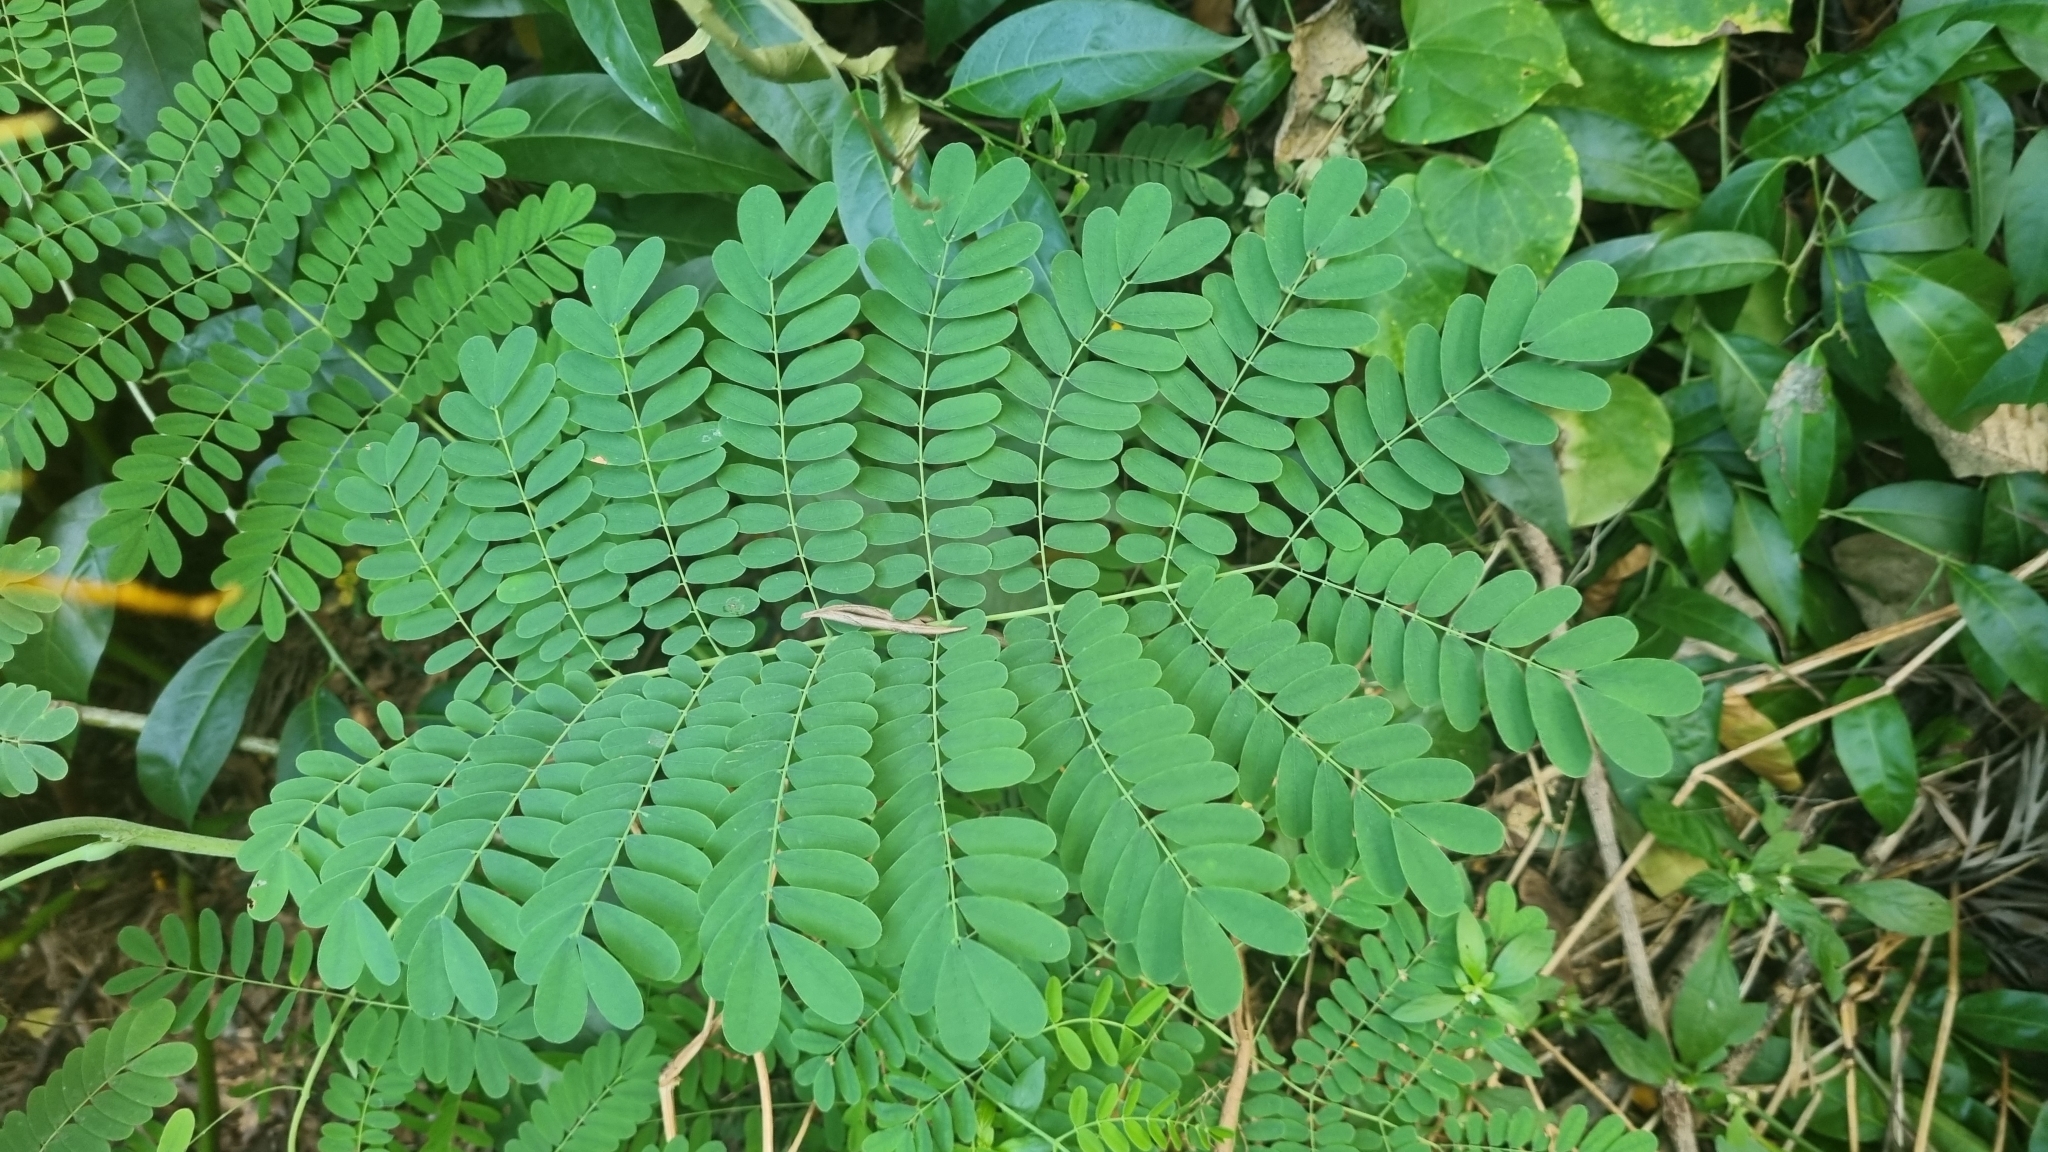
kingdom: Plantae
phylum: Tracheophyta
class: Magnoliopsida
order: Fabales
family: Fabaceae
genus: Caesalpinia
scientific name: Caesalpinia pulcherrima
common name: Pride-of-barbados
